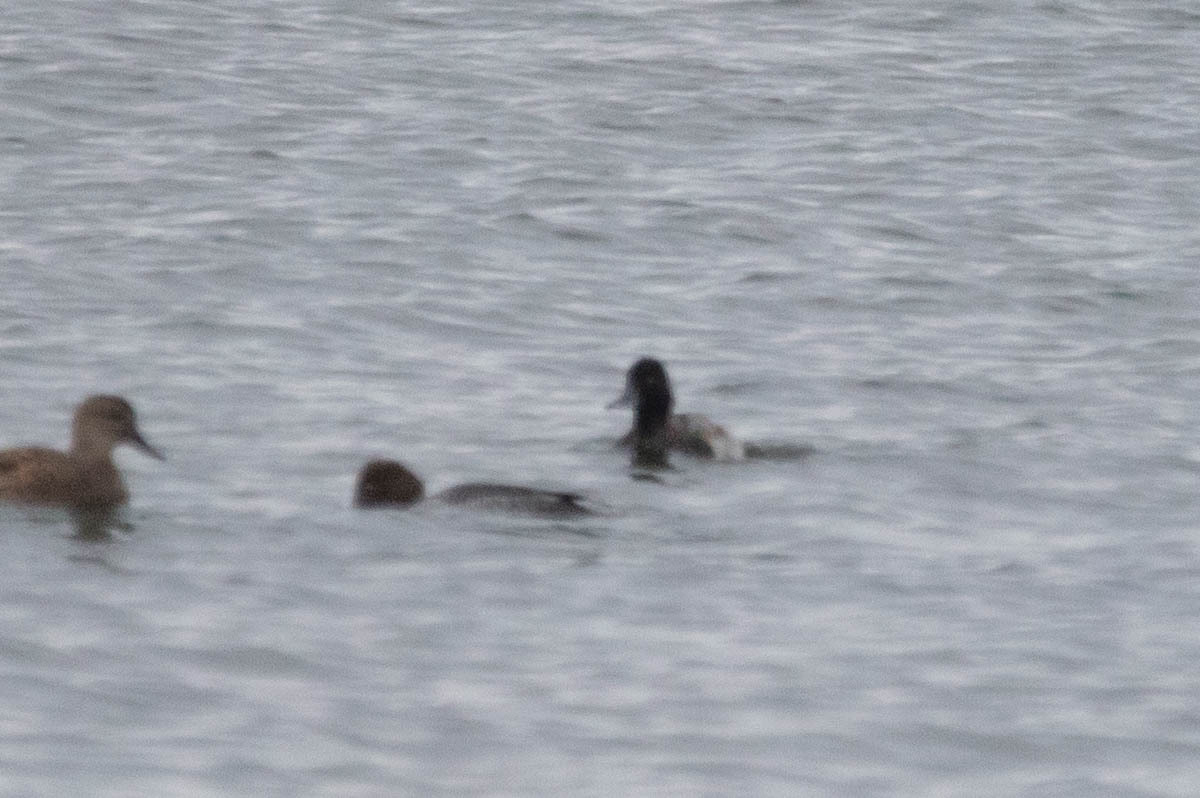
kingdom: Animalia
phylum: Chordata
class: Aves
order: Anseriformes
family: Anatidae
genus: Aythya
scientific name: Aythya affinis
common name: Lesser scaup
